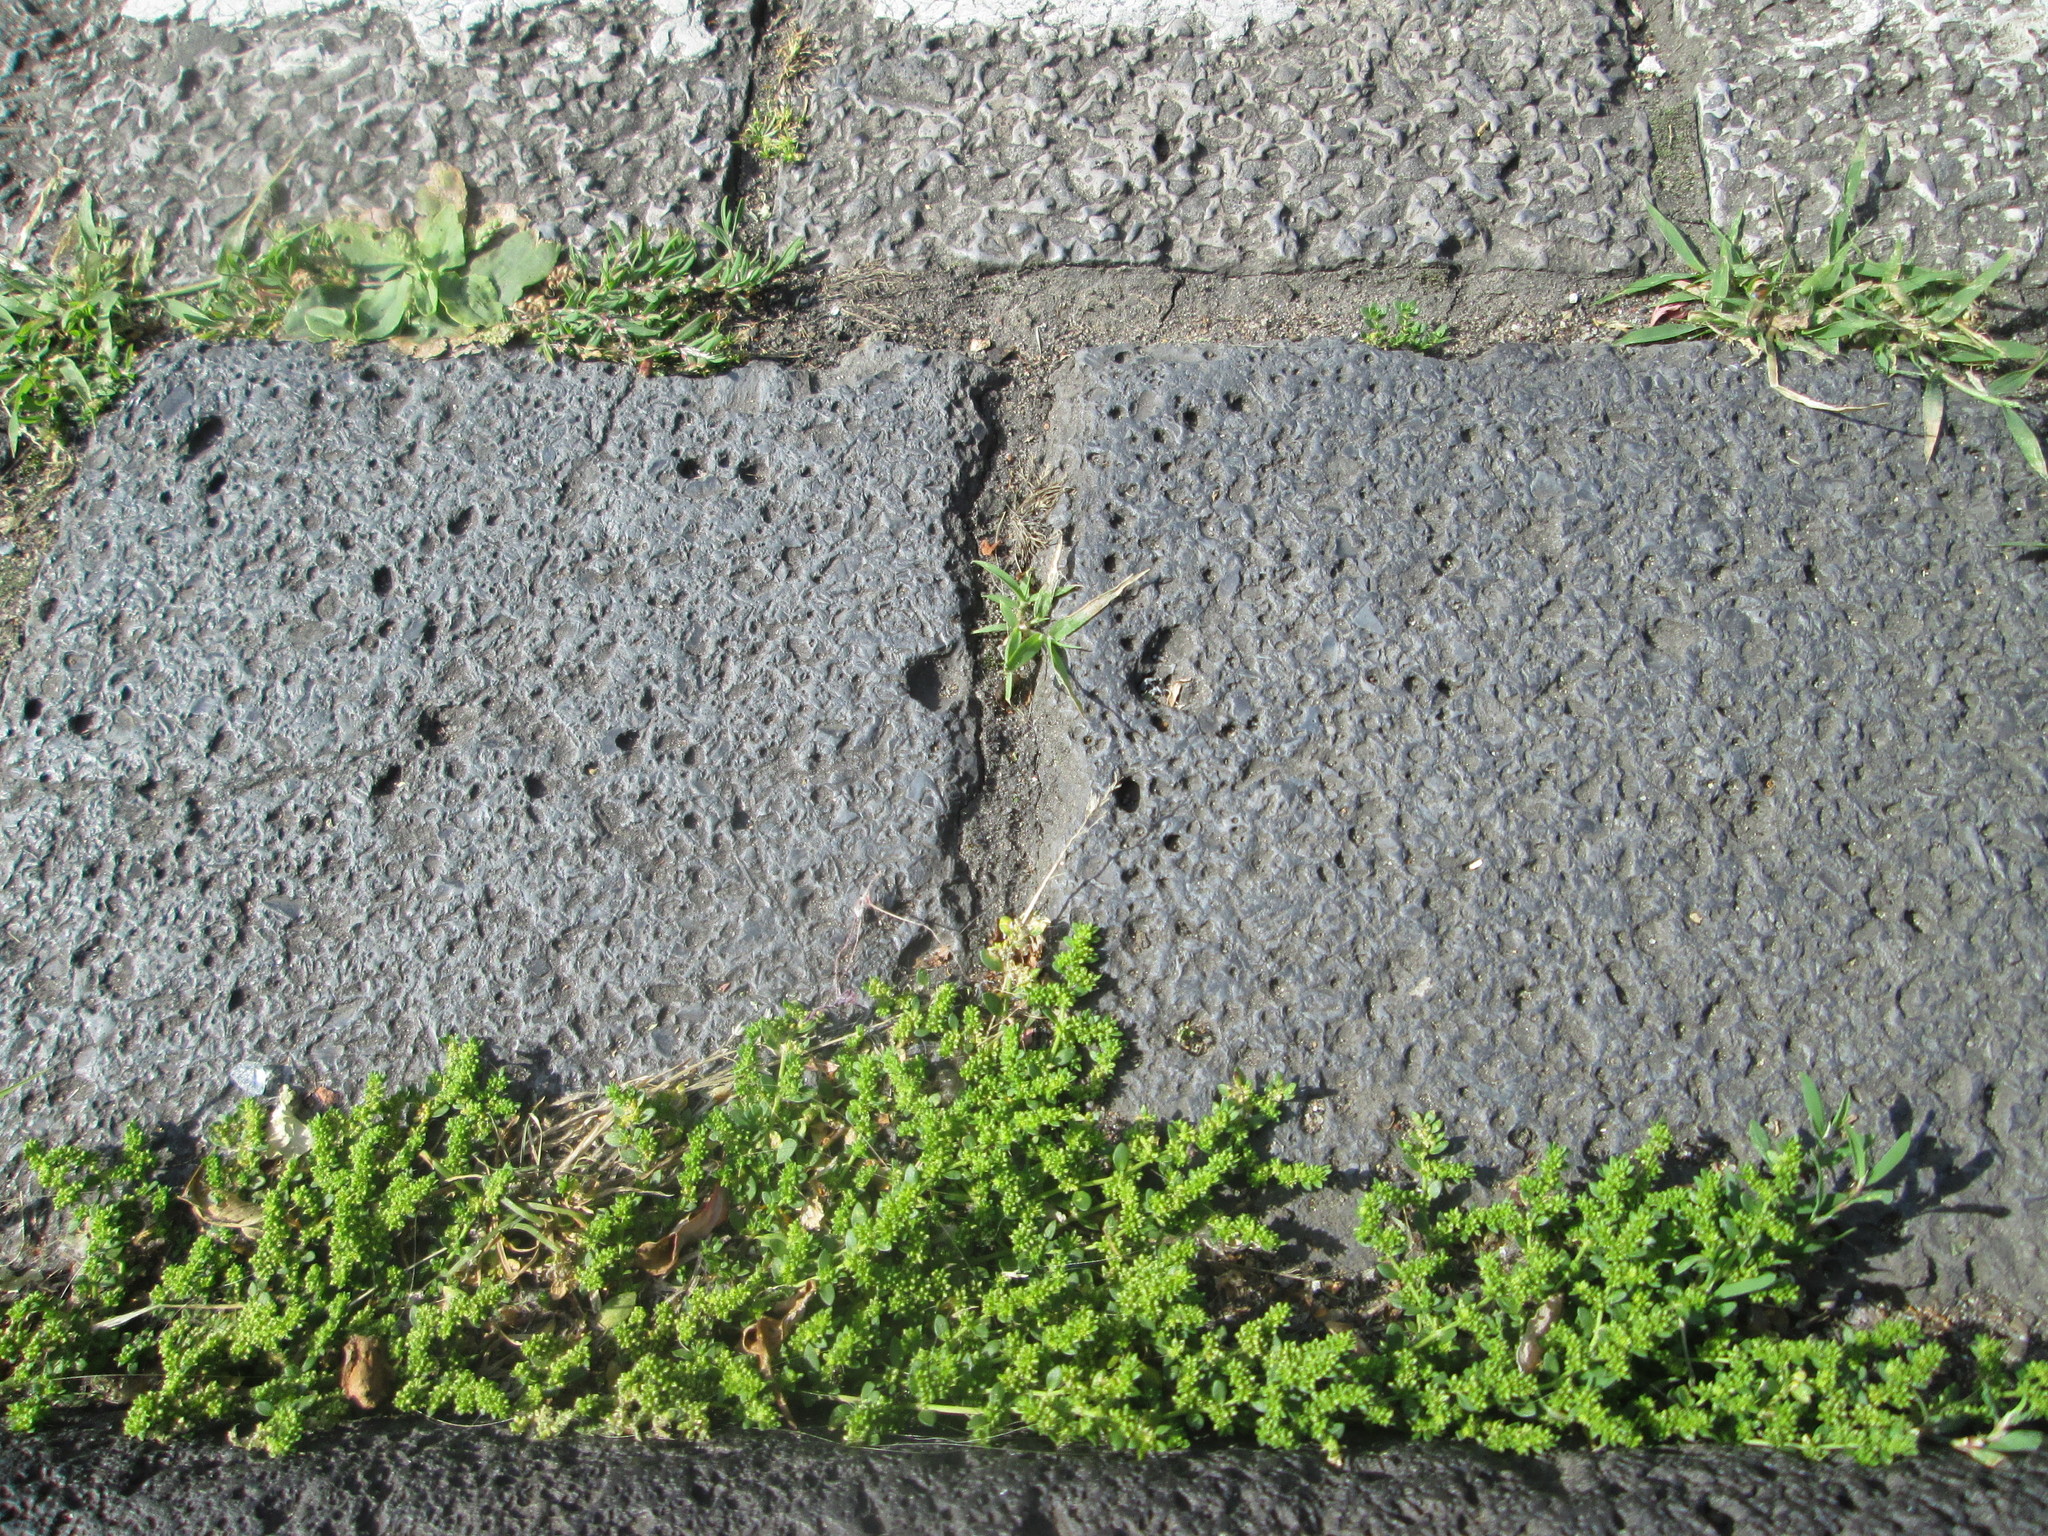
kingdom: Plantae
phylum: Tracheophyta
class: Magnoliopsida
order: Caryophyllales
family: Caryophyllaceae
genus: Herniaria
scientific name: Herniaria glabra
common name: Smooth rupturewort
